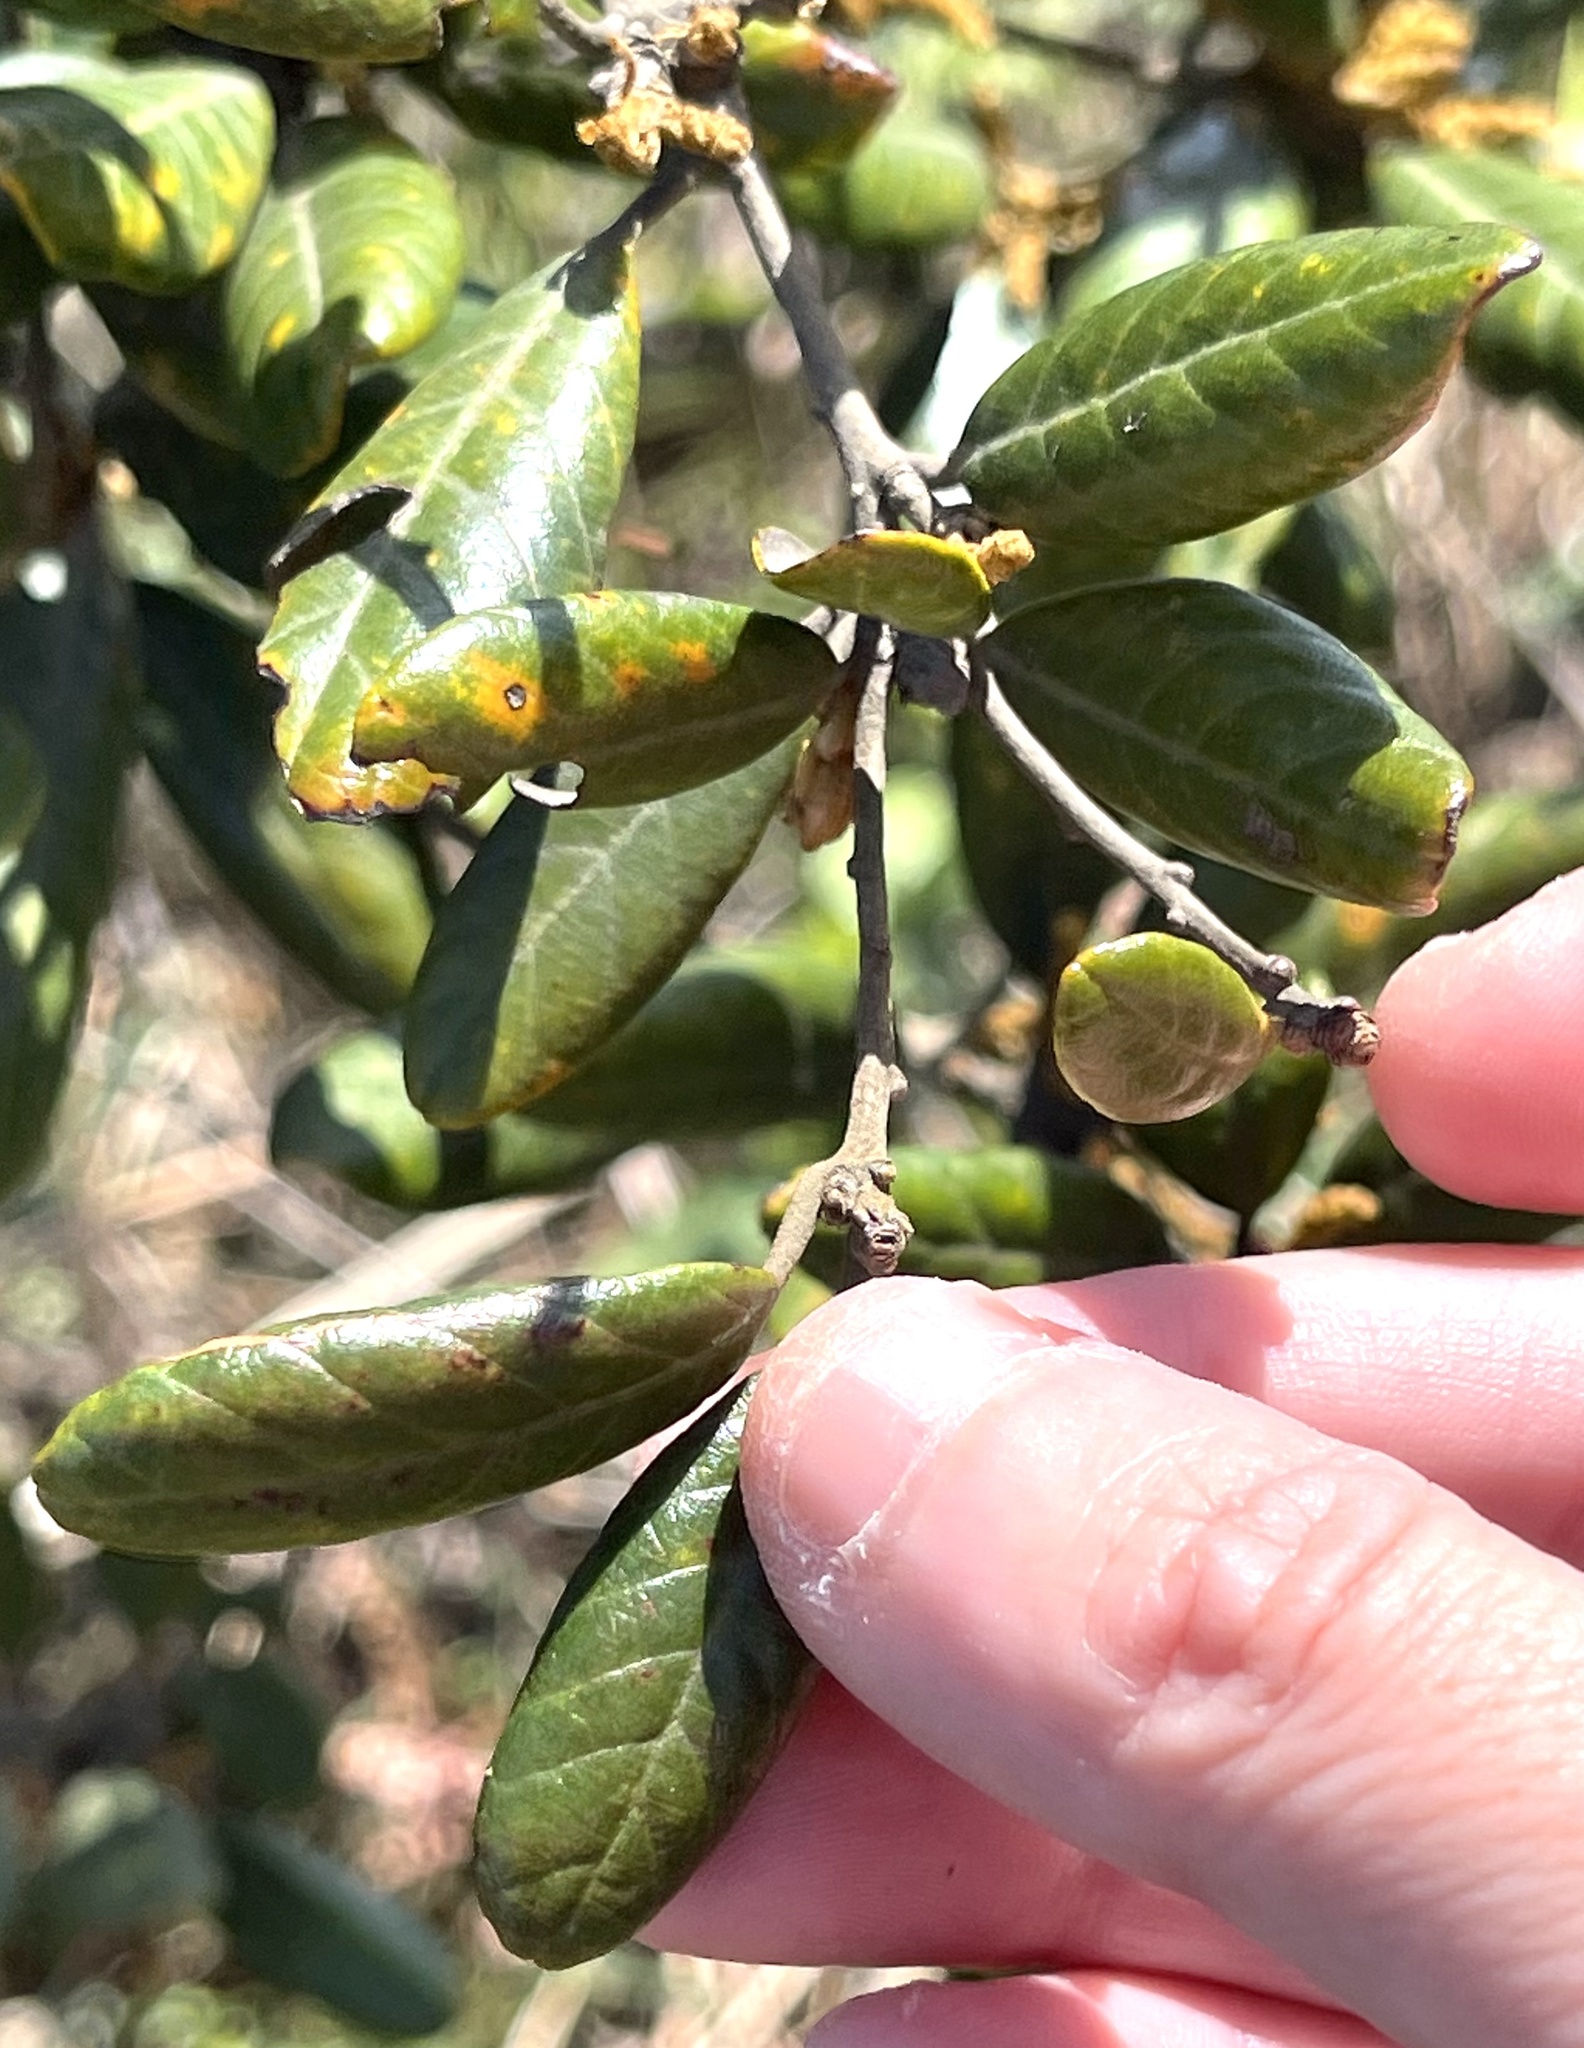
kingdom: Plantae
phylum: Tracheophyta
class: Magnoliopsida
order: Fagales
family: Fagaceae
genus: Quercus
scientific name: Quercus championii
